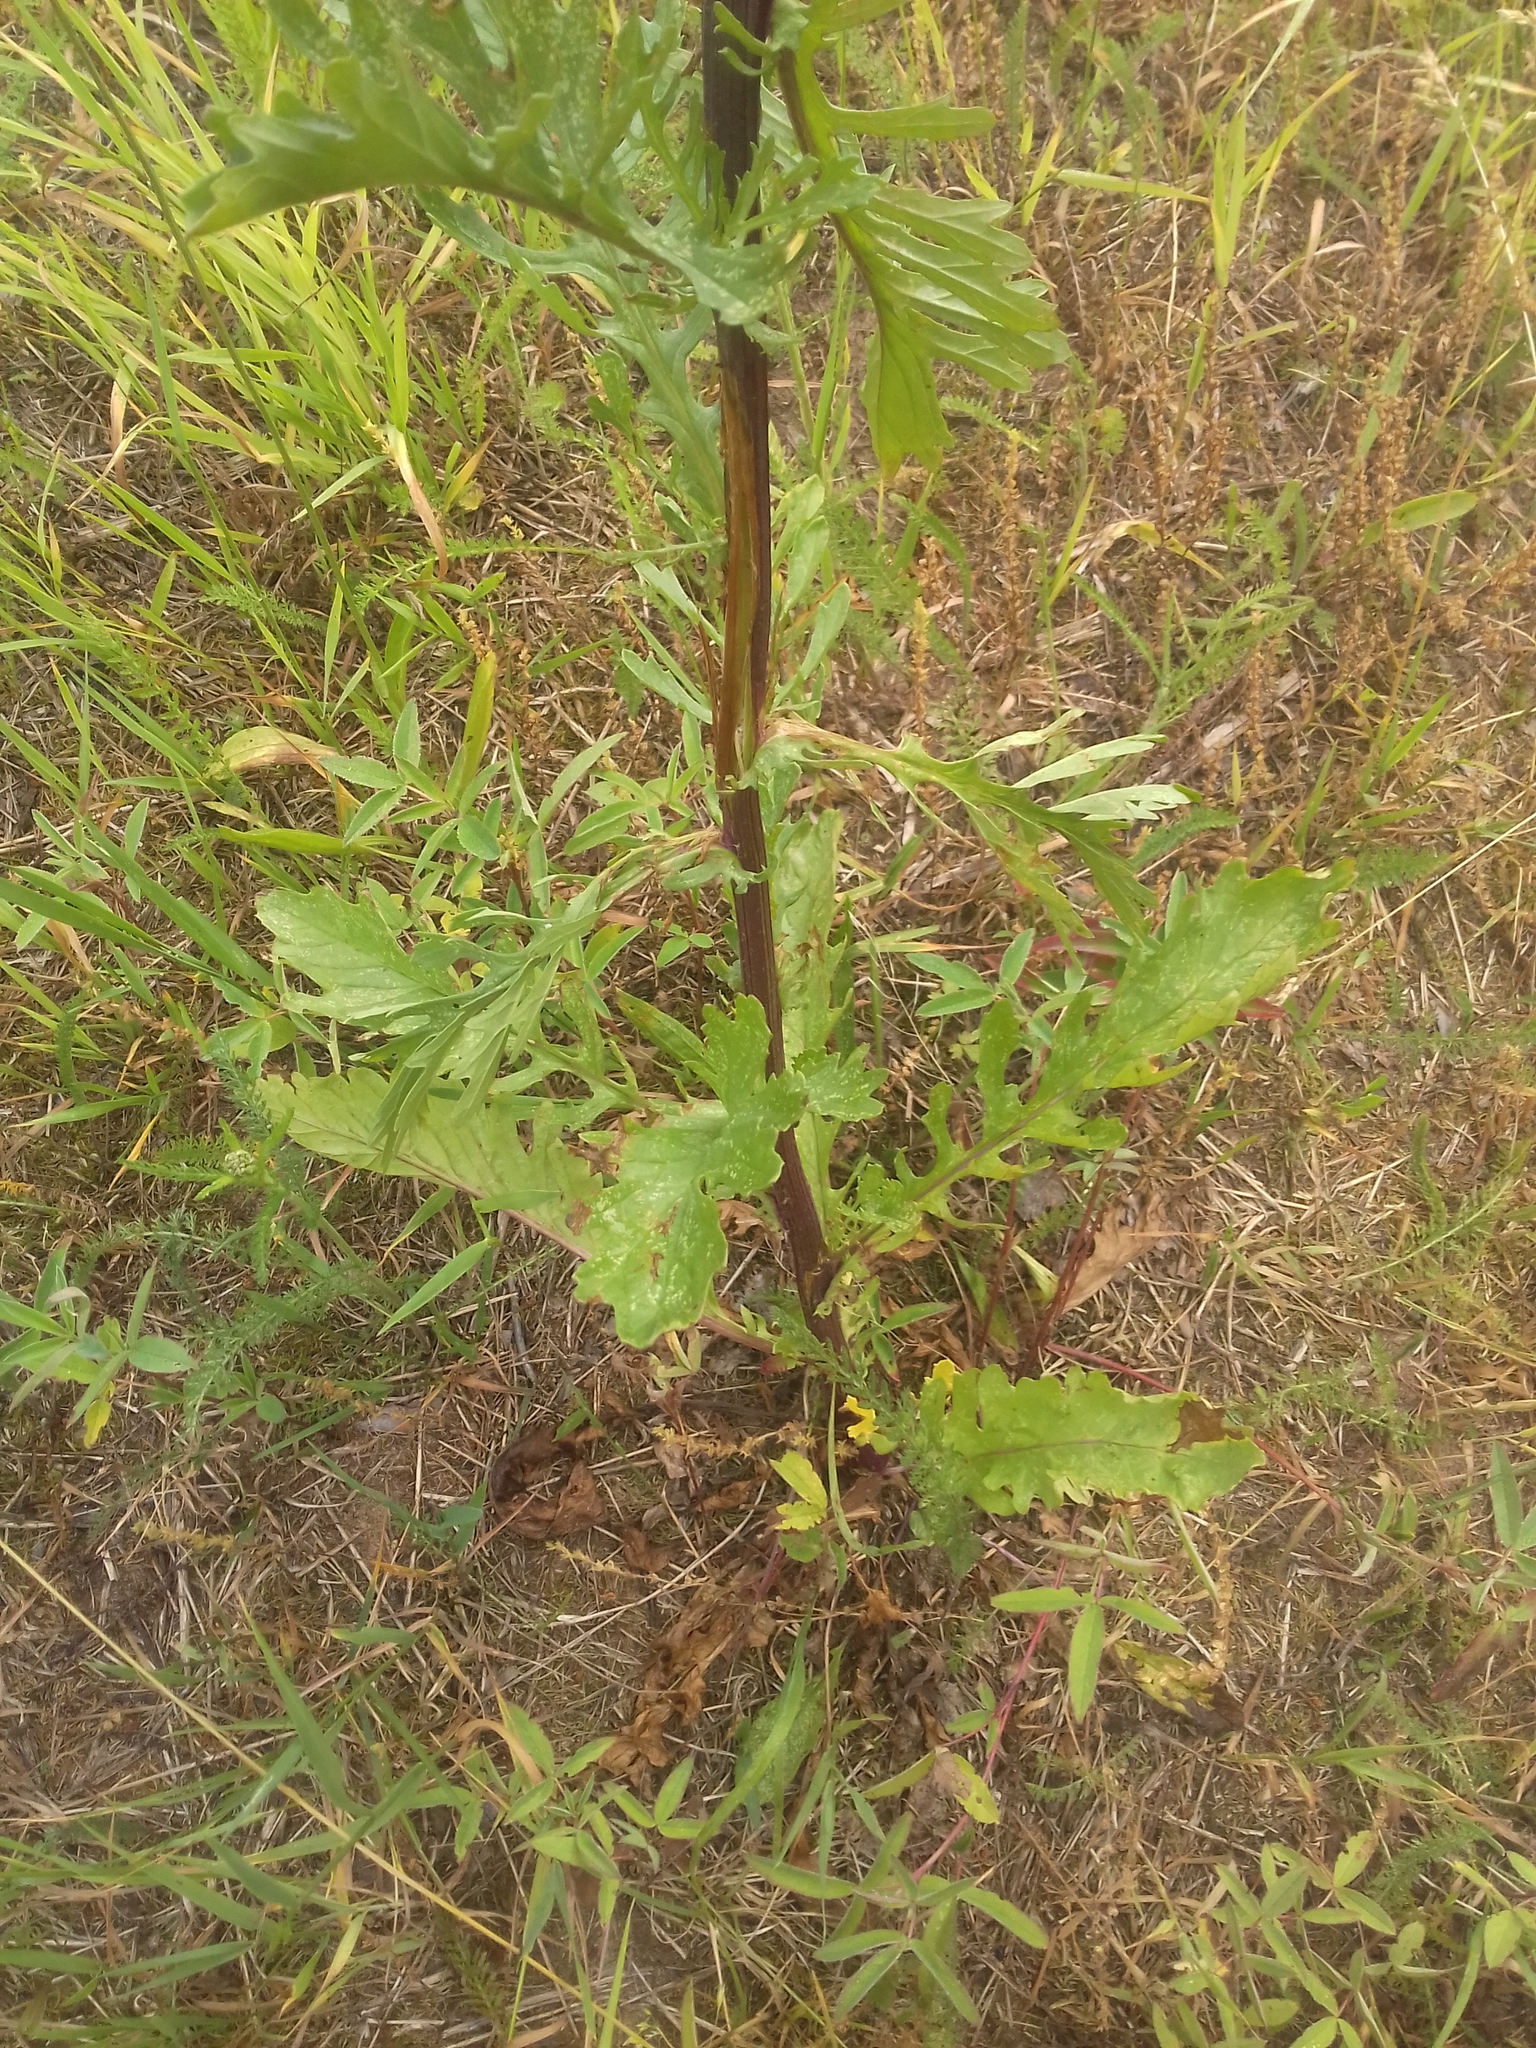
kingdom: Plantae
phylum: Tracheophyta
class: Magnoliopsida
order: Asterales
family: Asteraceae
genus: Jacobaea
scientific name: Jacobaea vulgaris
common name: Stinking willie
